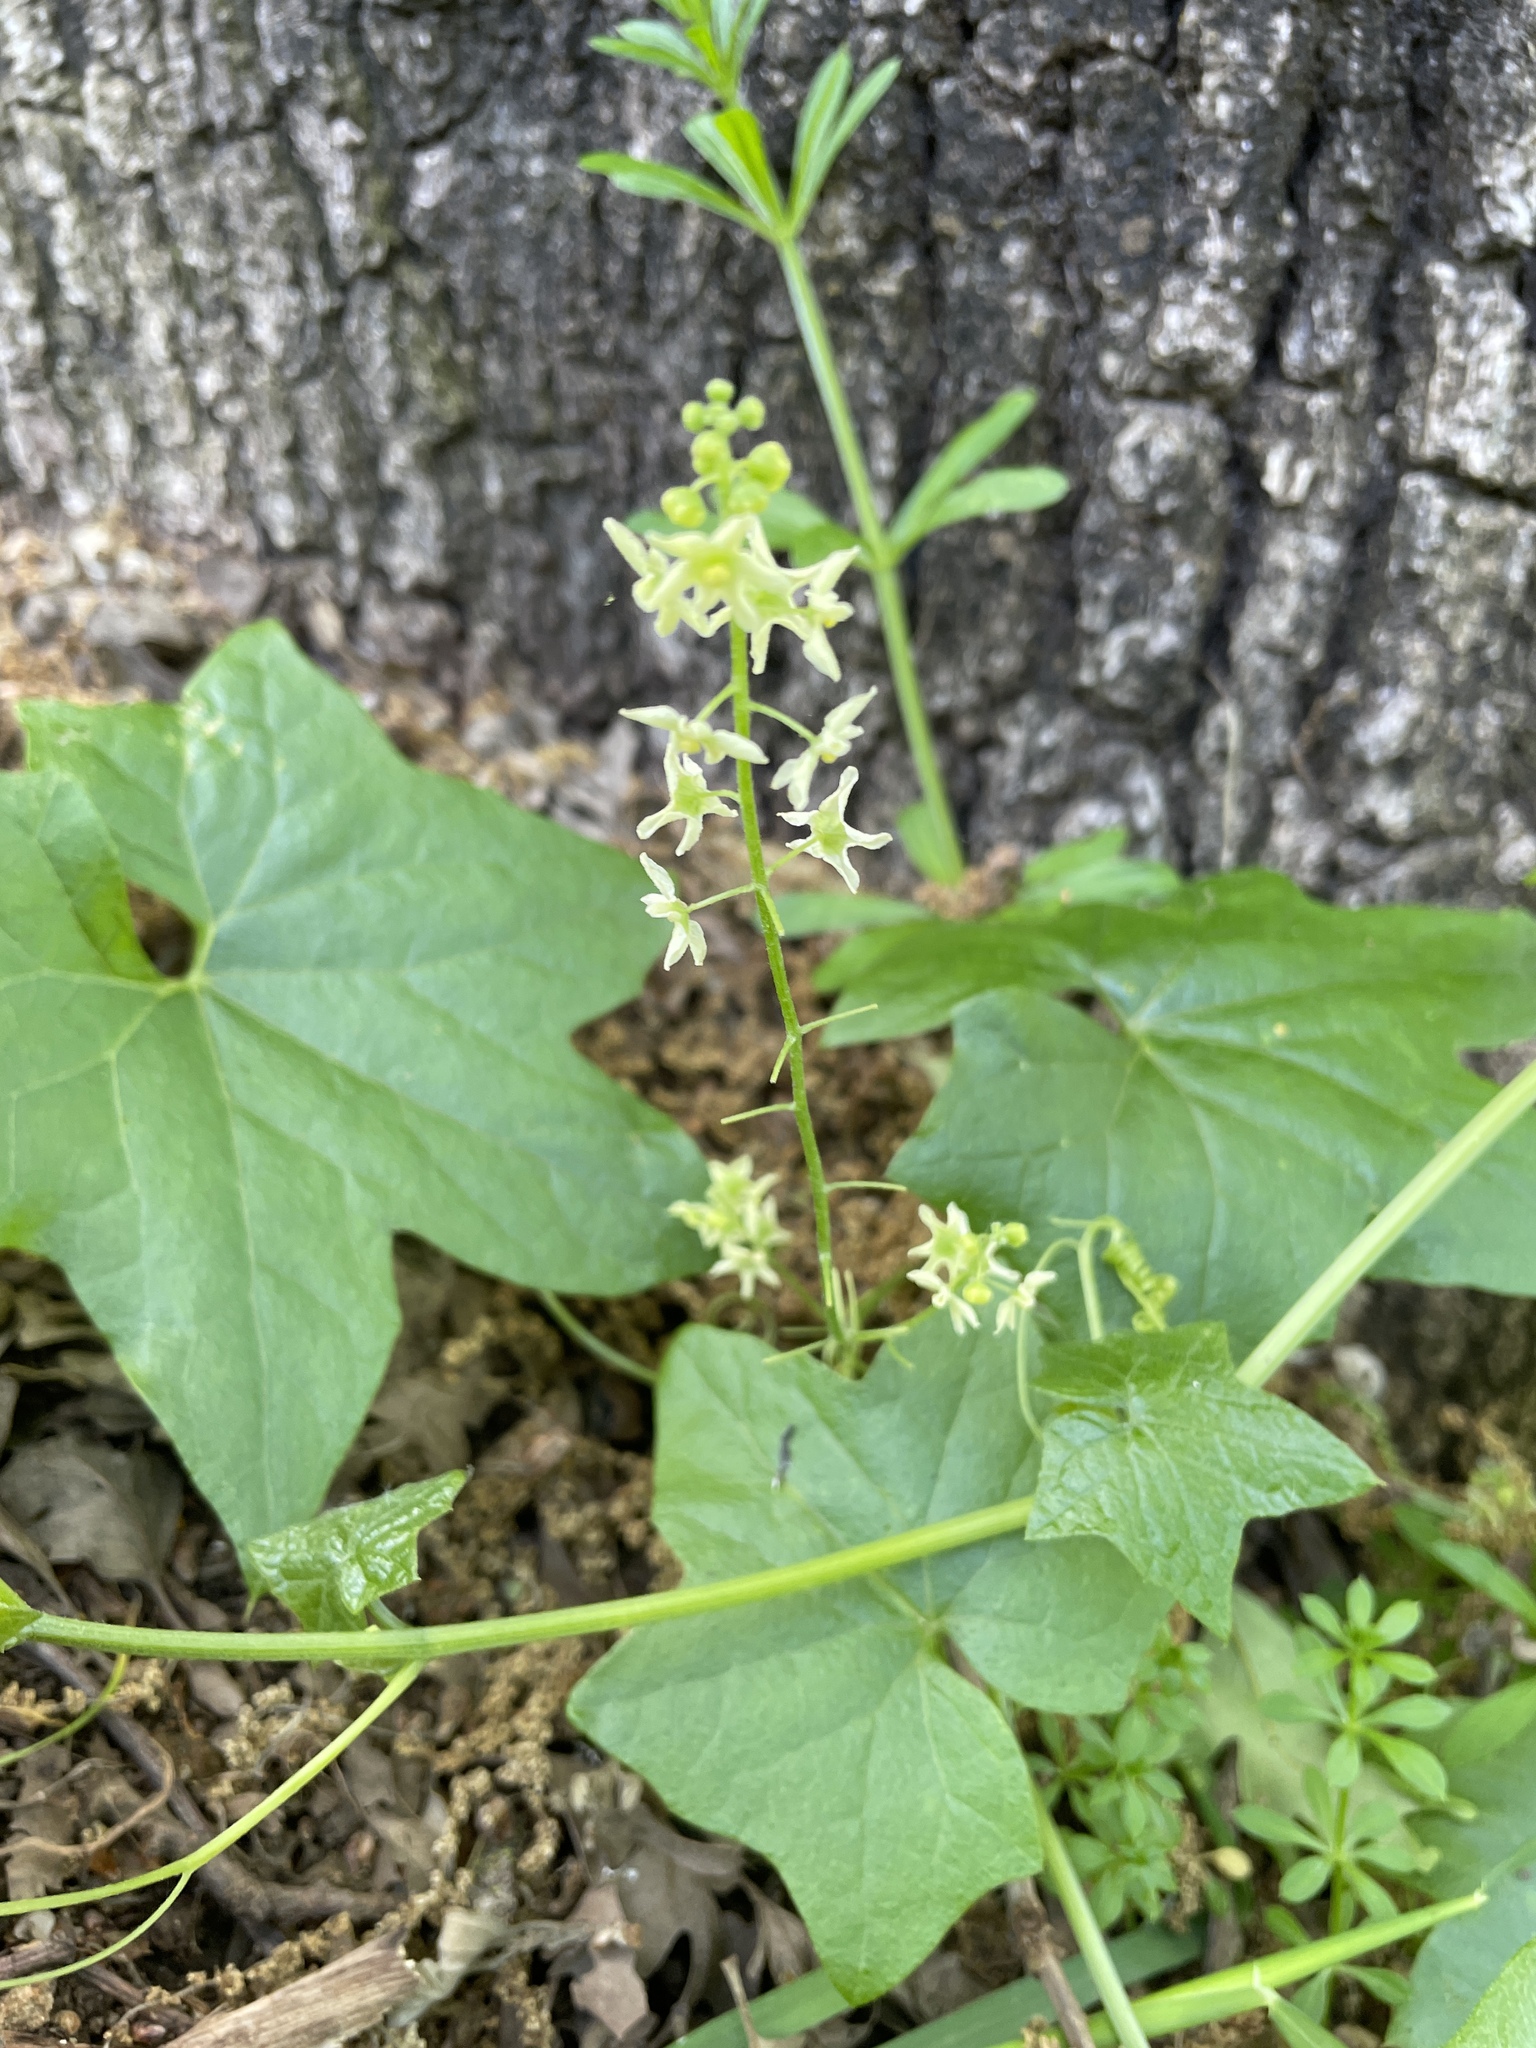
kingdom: Plantae
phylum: Tracheophyta
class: Magnoliopsida
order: Cucurbitales
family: Cucurbitaceae
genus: Marah
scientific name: Marah fabacea
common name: California manroot
